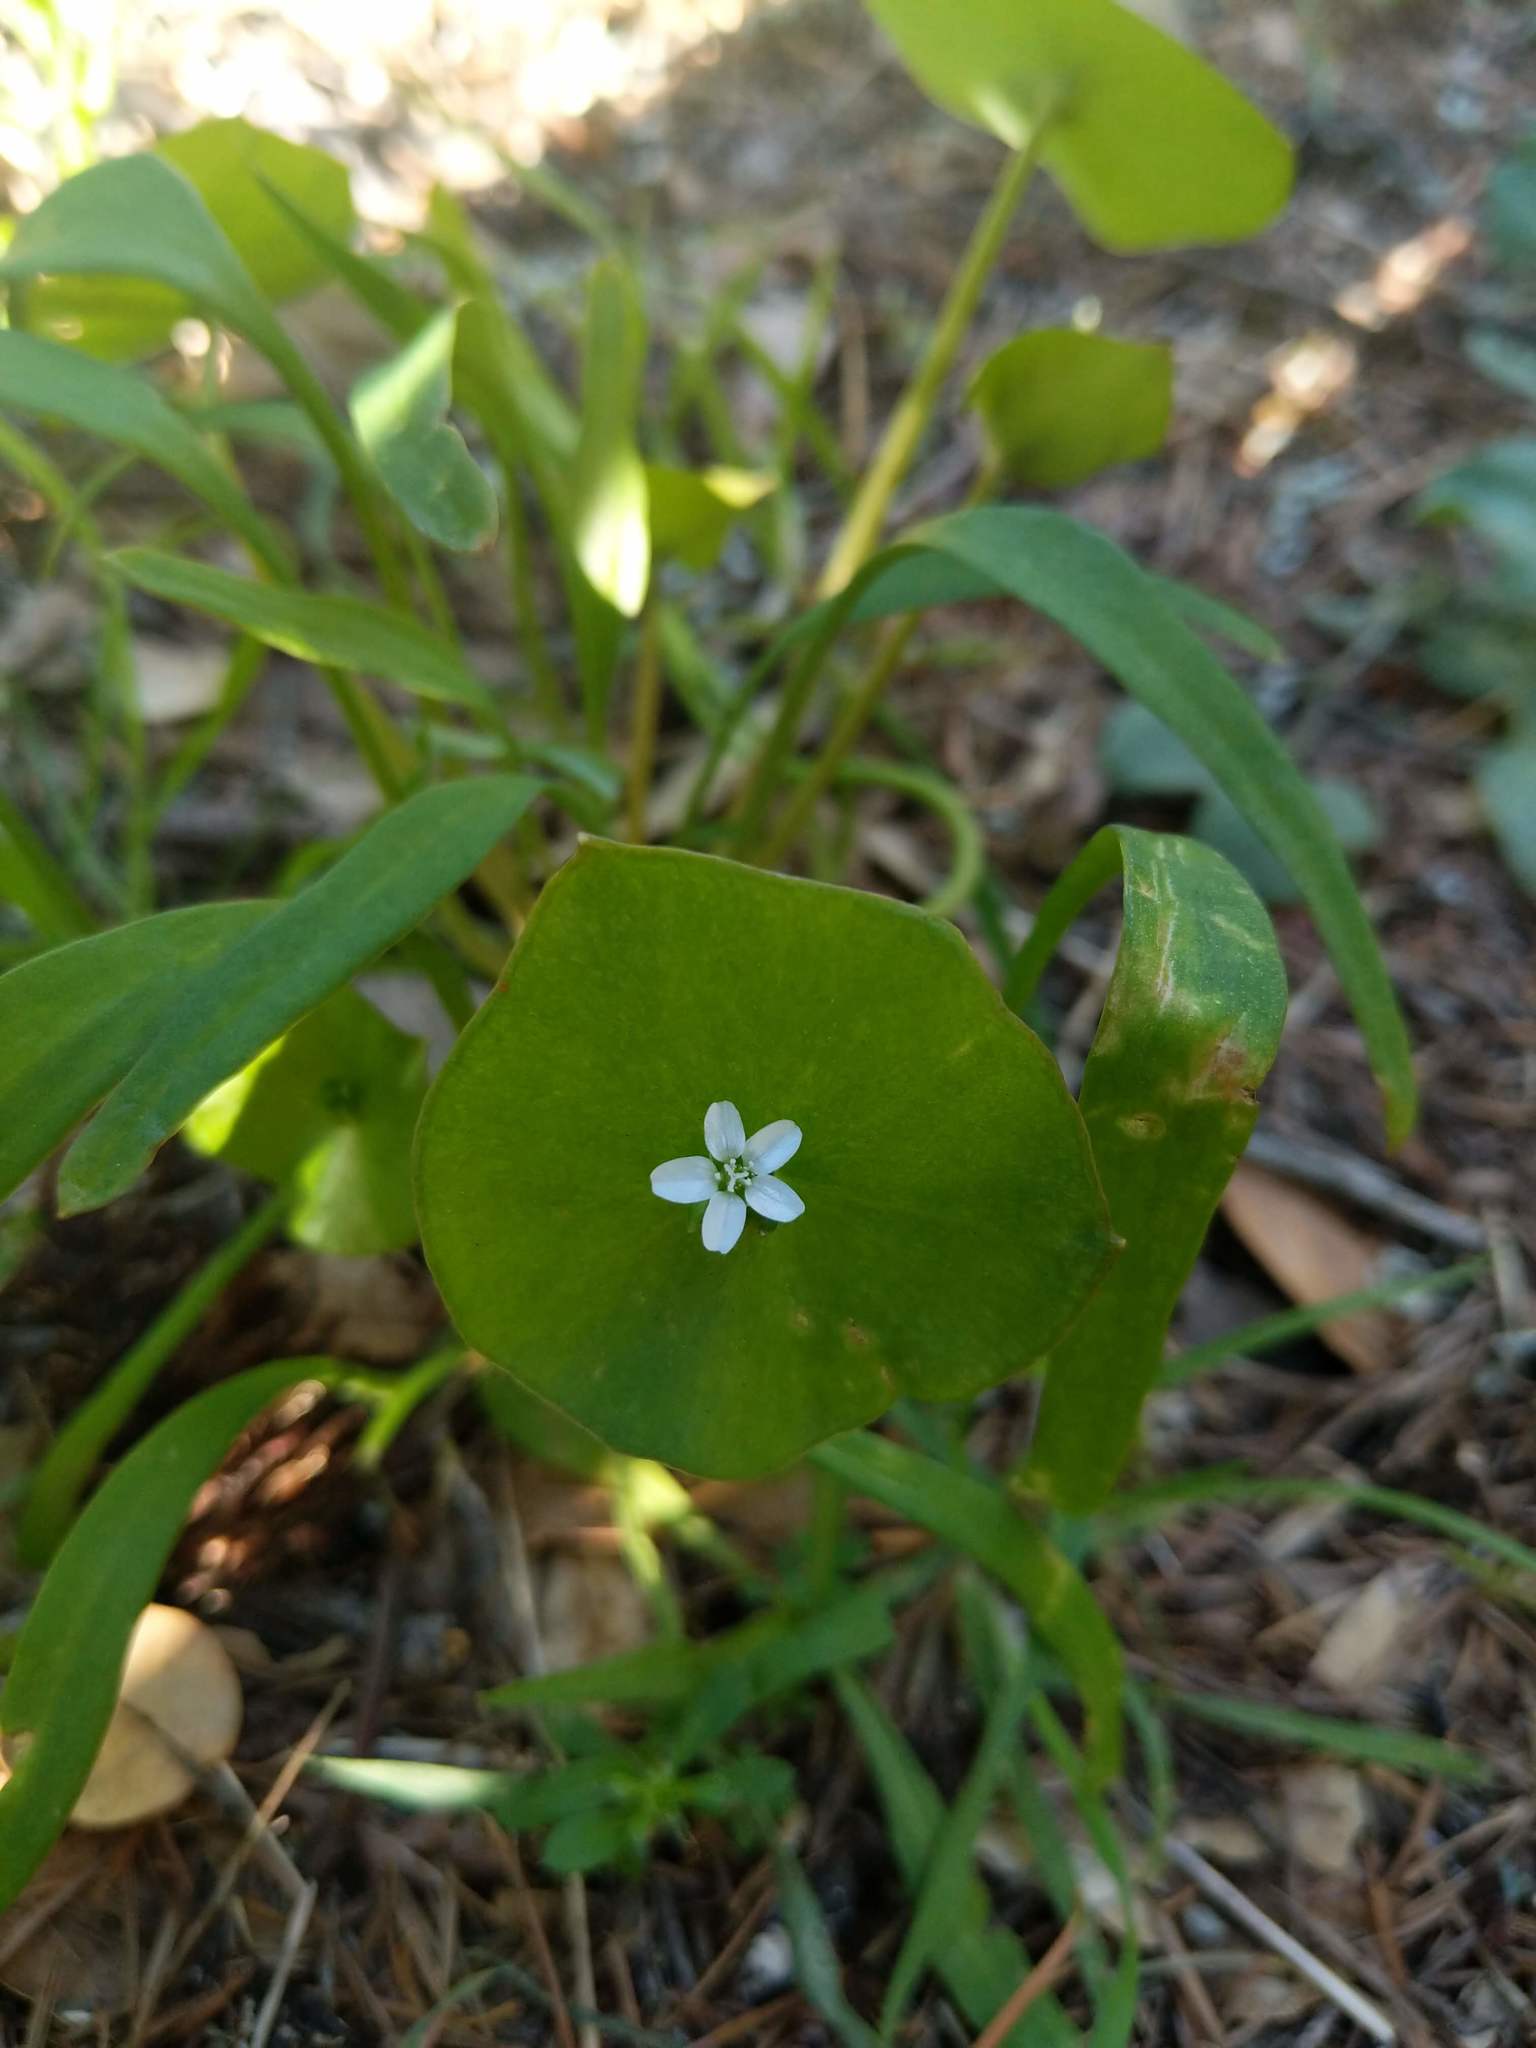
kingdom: Plantae
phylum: Tracheophyta
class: Magnoliopsida
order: Caryophyllales
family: Montiaceae
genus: Claytonia
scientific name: Claytonia perfoliata
